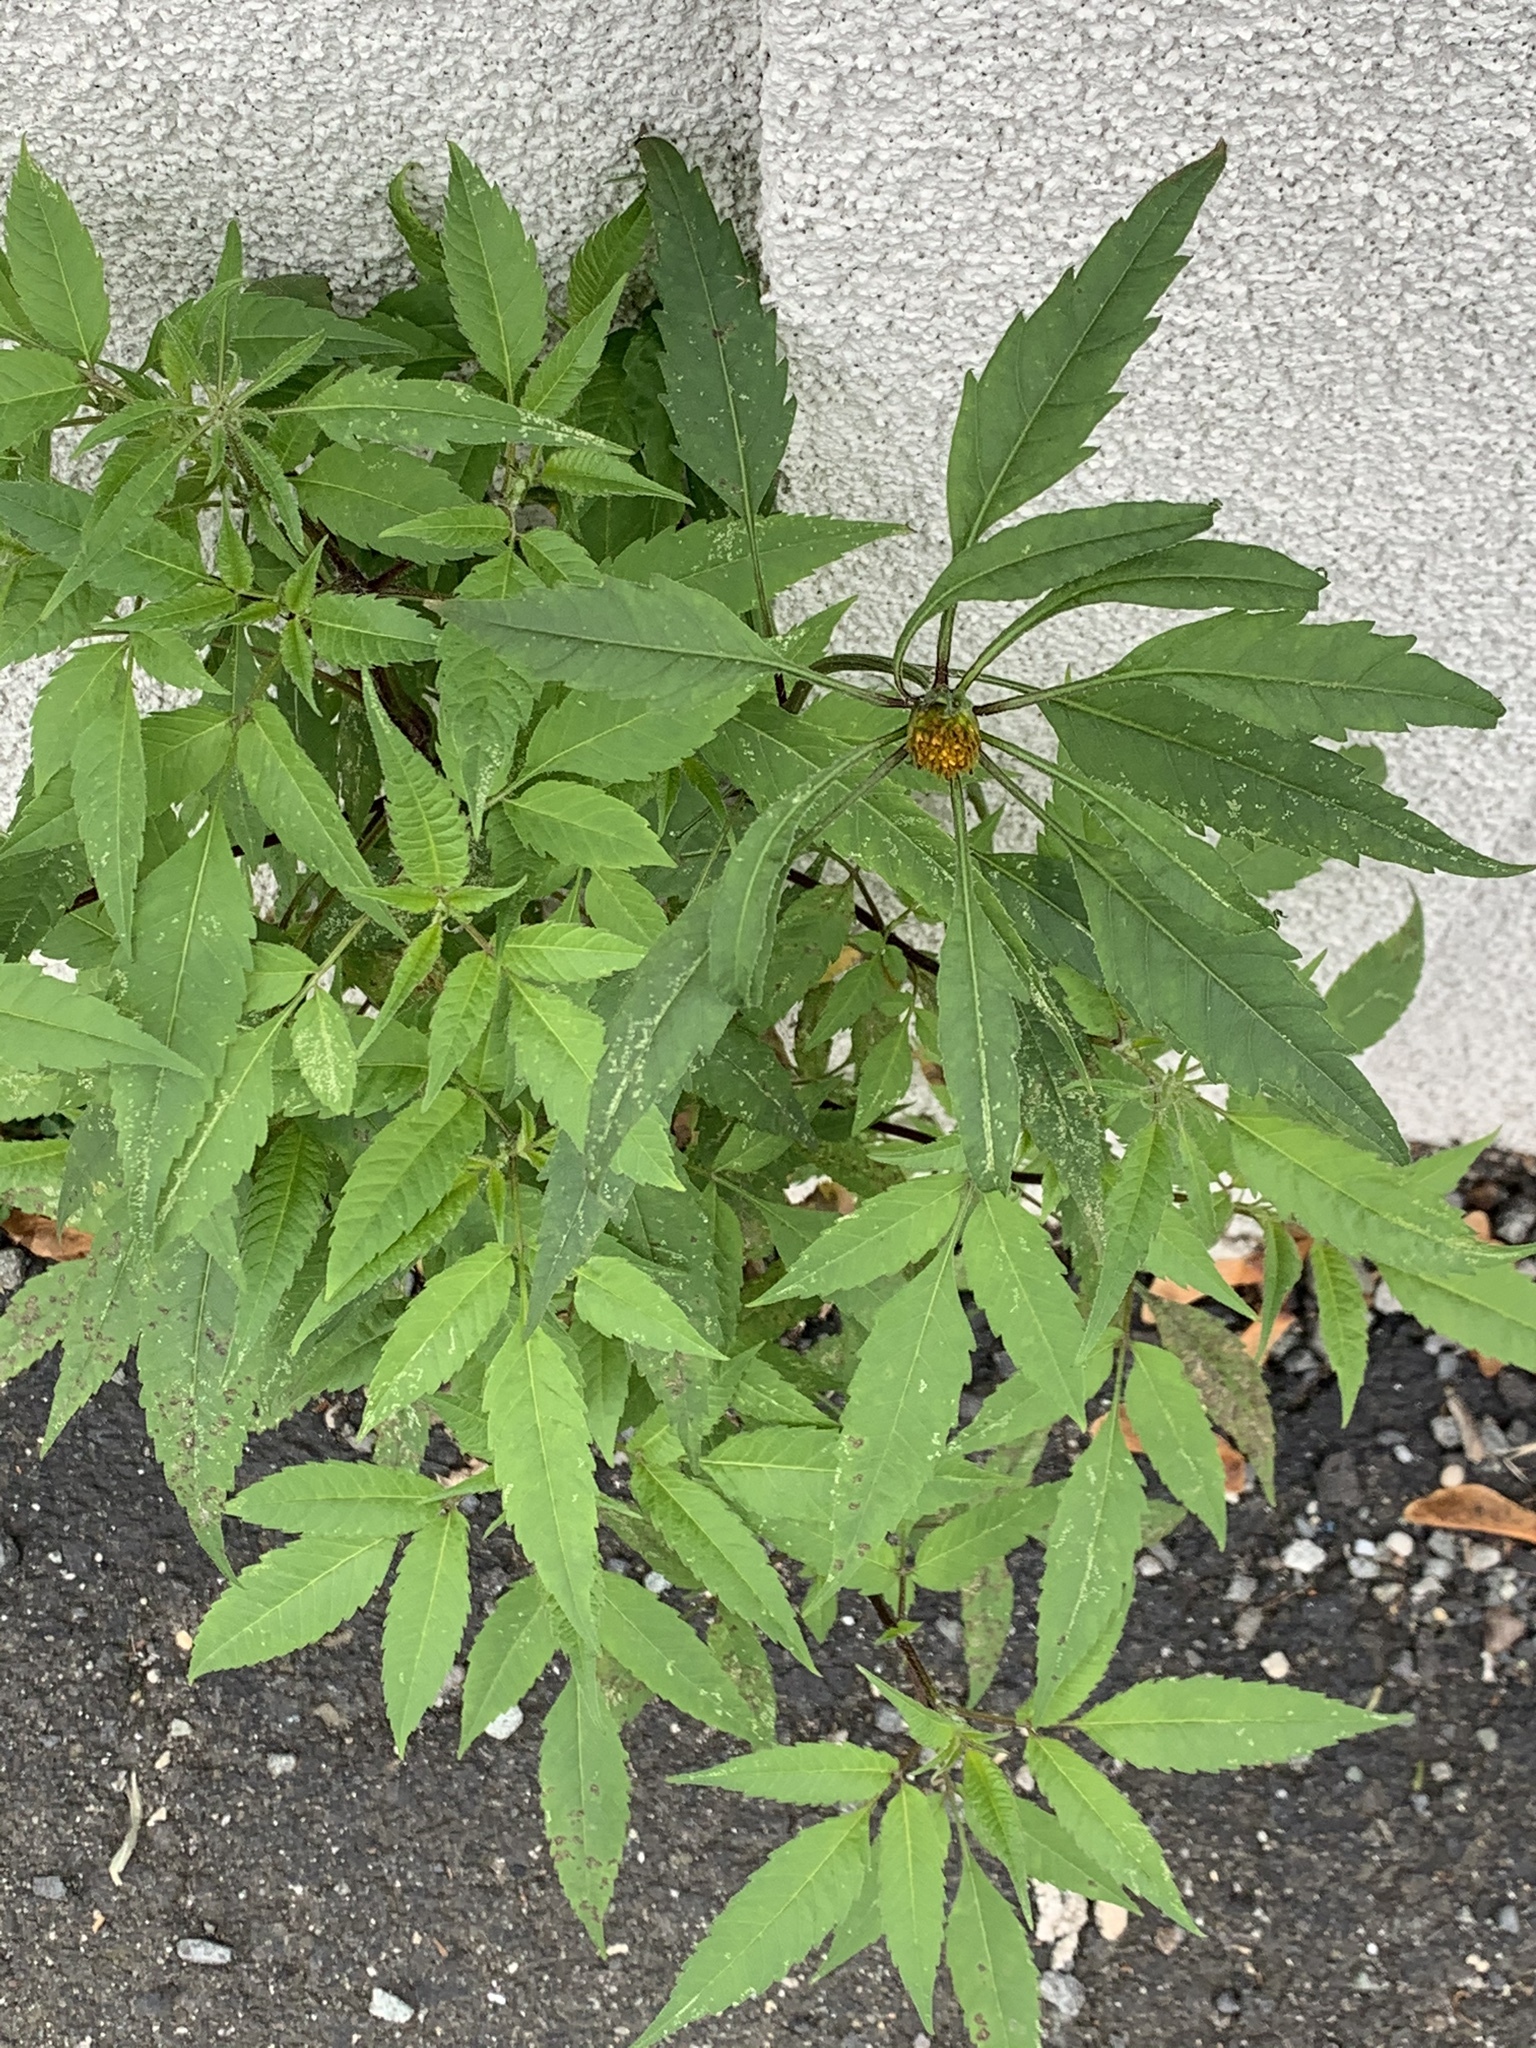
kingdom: Plantae
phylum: Tracheophyta
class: Magnoliopsida
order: Asterales
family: Asteraceae
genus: Bidens
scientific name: Bidens frondosa
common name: Beggarticks
